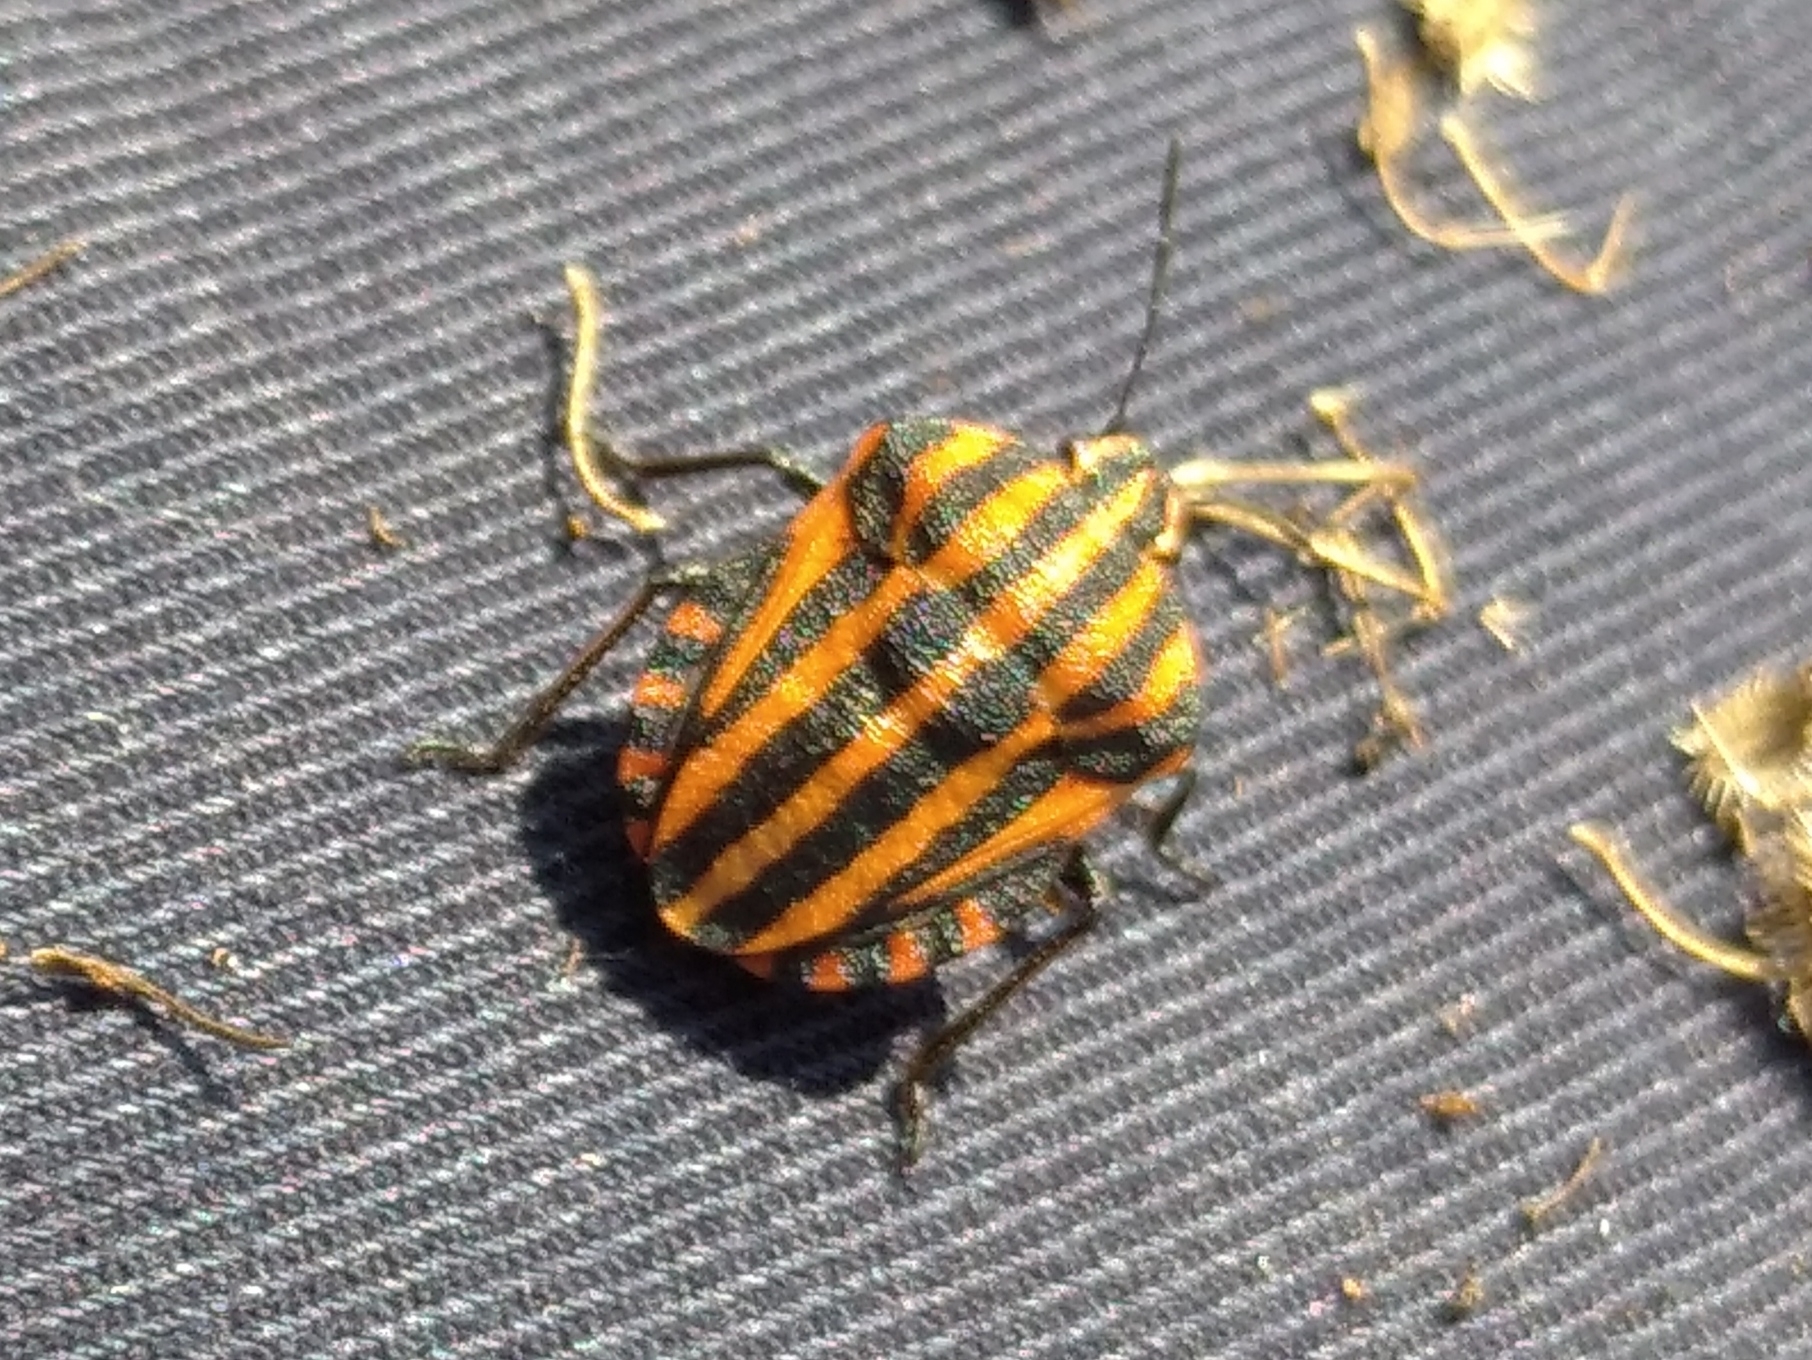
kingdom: Animalia
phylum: Arthropoda
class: Insecta
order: Hemiptera
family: Pentatomidae
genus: Graphosoma
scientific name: Graphosoma italicum
